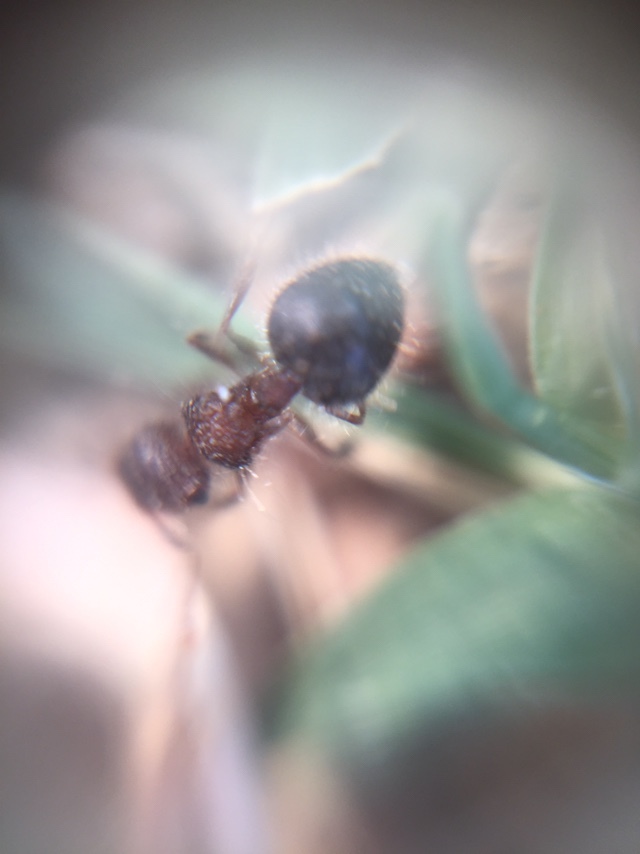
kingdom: Animalia
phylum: Arthropoda
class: Insecta
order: Hymenoptera
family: Formicidae
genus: Meranoplus
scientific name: Meranoplus bicolor
